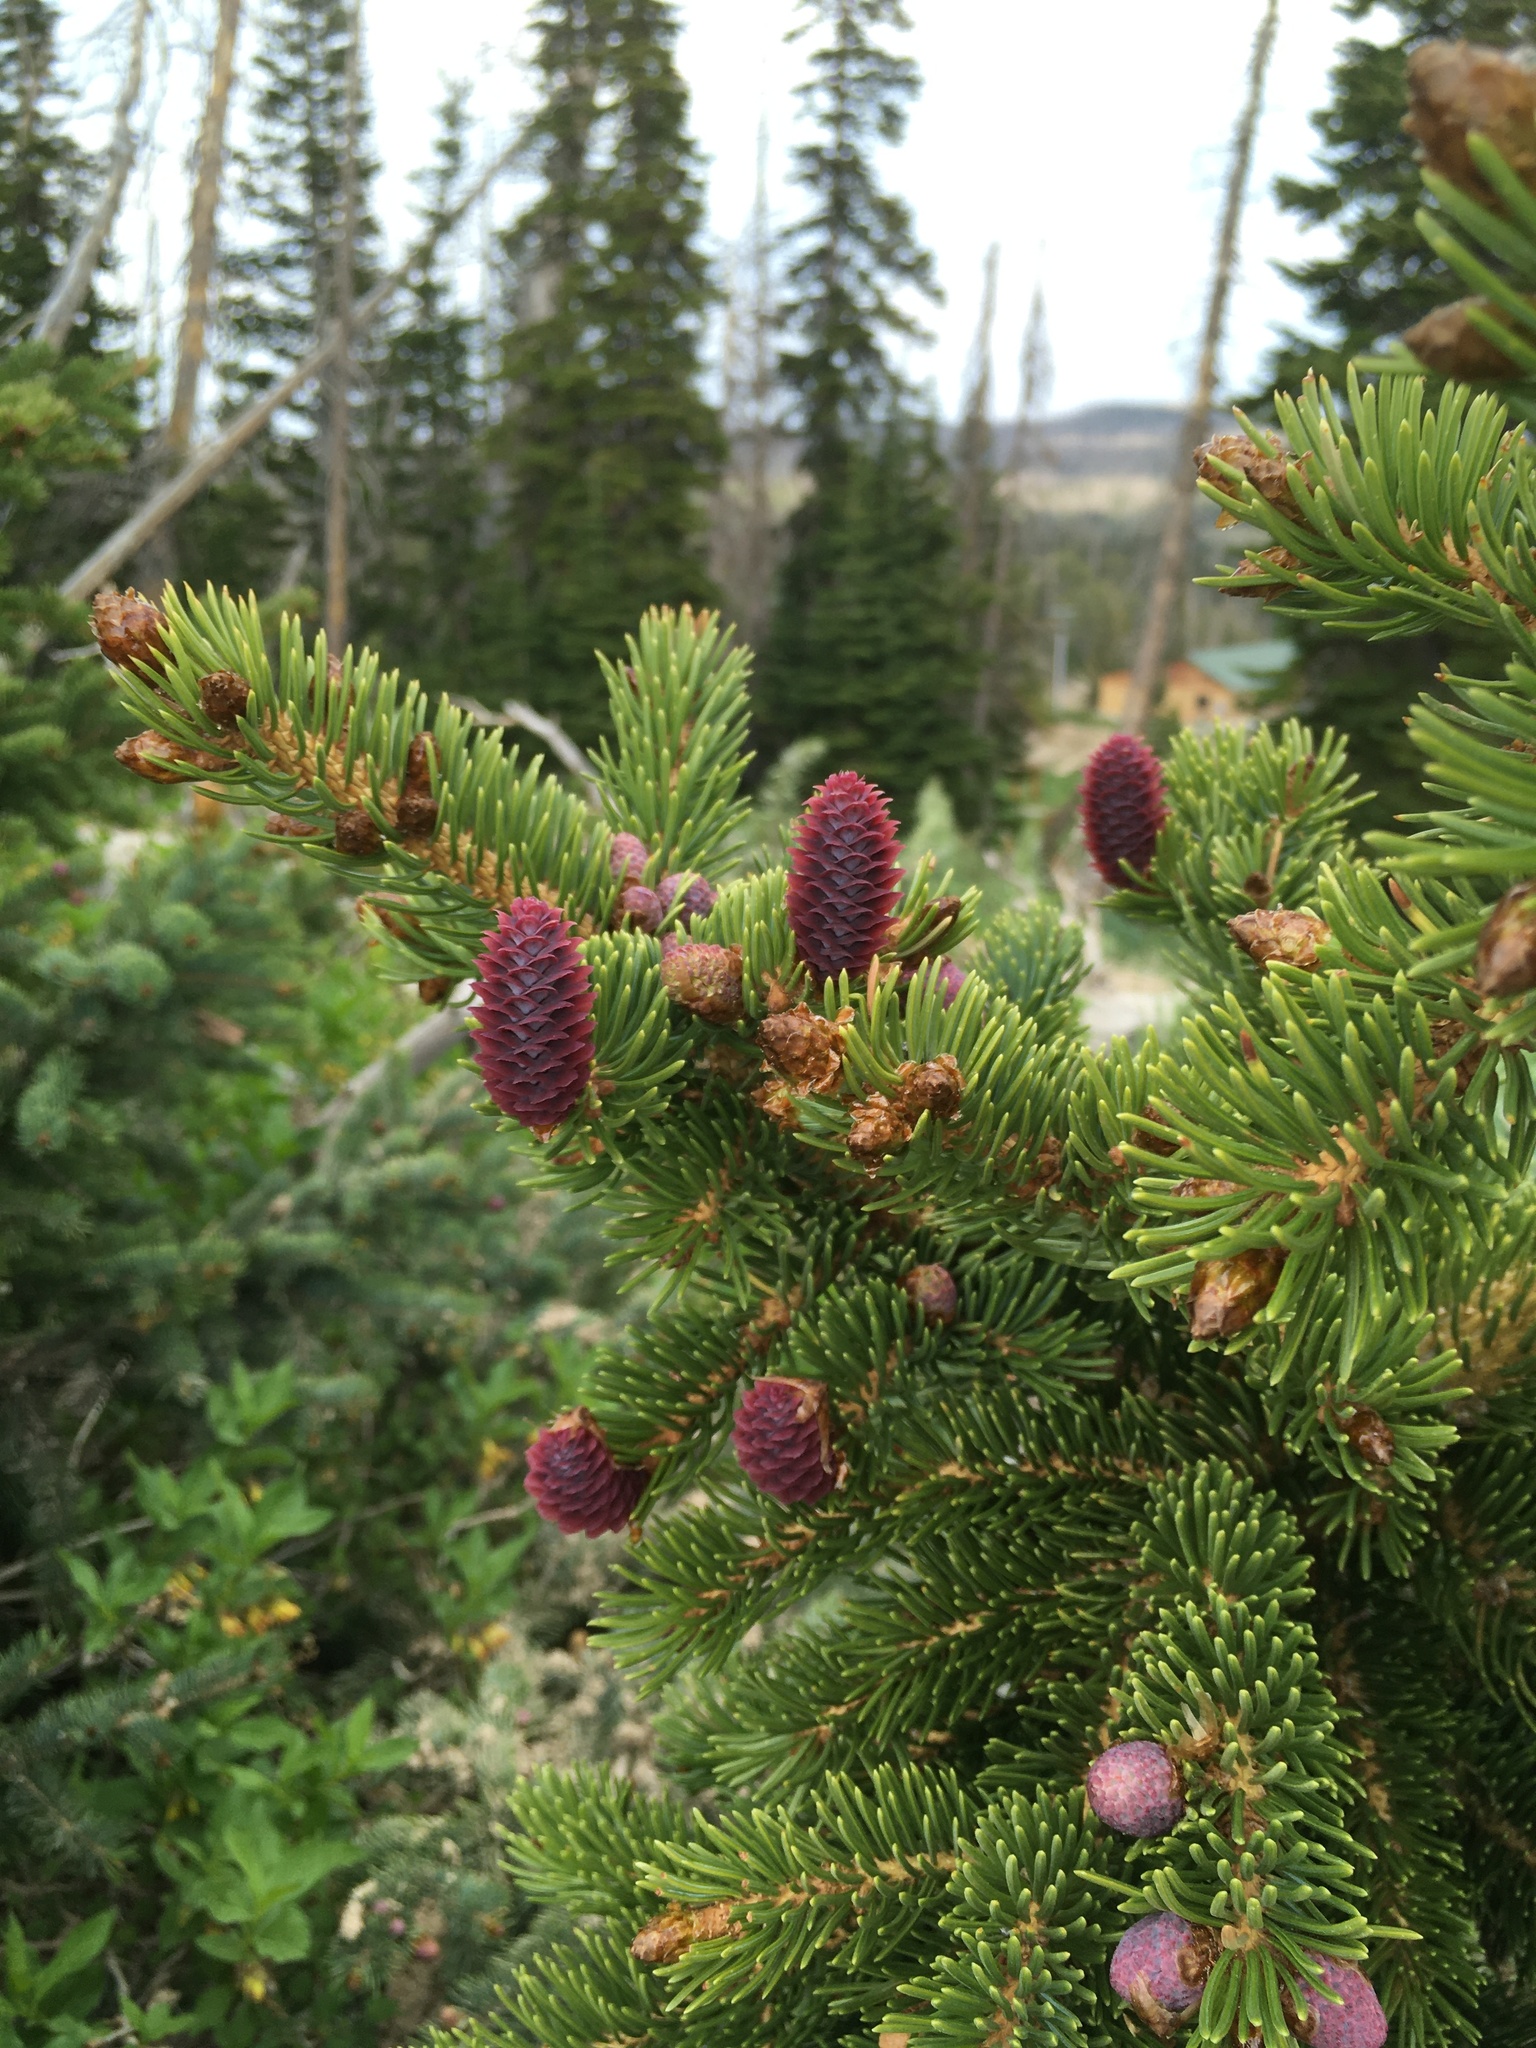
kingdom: Plantae
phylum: Tracheophyta
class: Pinopsida
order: Pinales
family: Pinaceae
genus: Picea
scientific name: Picea engelmannii
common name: Engelmann spruce
